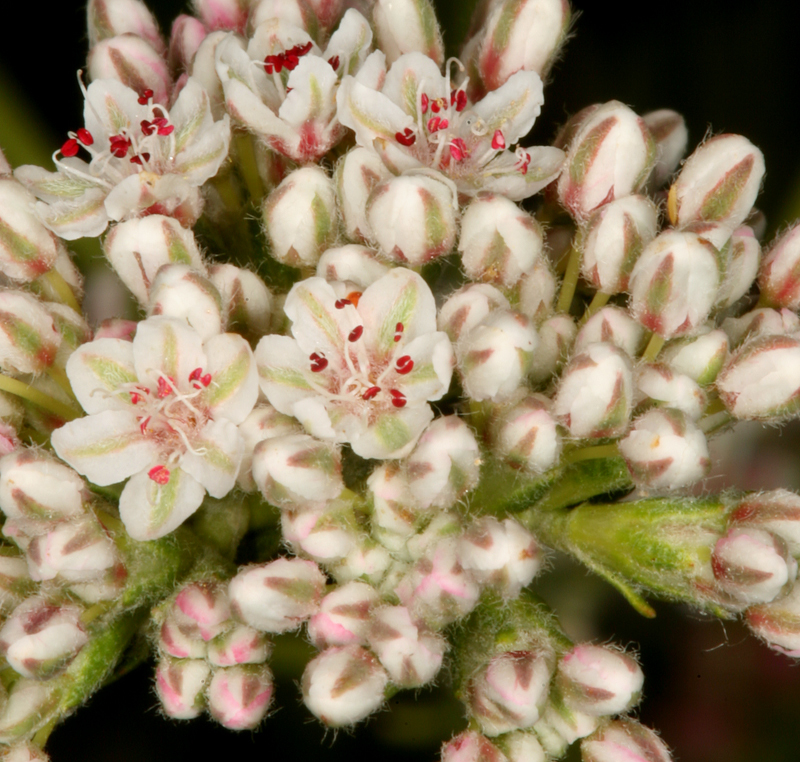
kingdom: Plantae
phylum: Tracheophyta
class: Magnoliopsida
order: Caryophyllales
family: Polygonaceae
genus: Eriogonum
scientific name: Eriogonum fasciculatum
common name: California wild buckwheat
